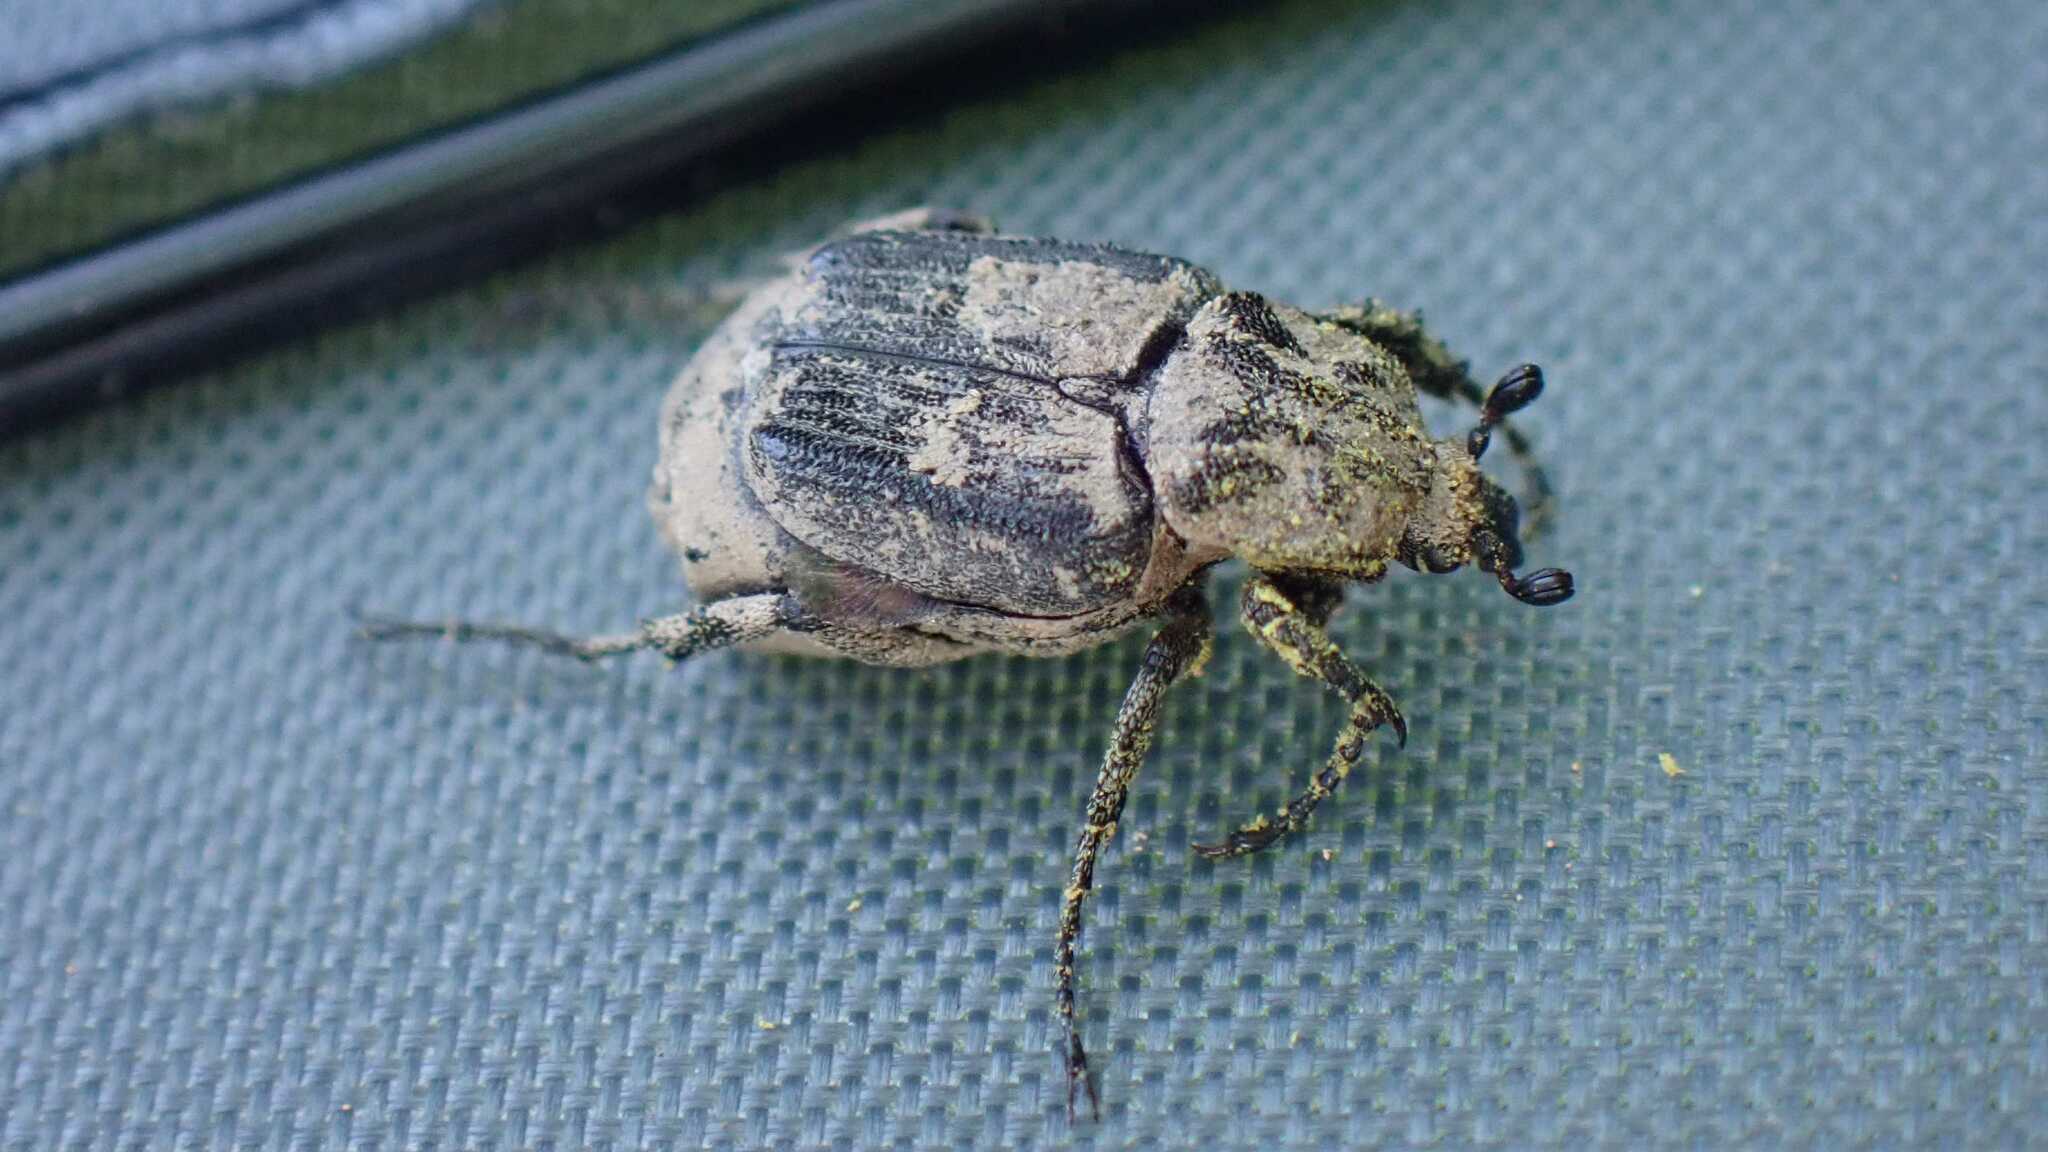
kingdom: Animalia
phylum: Arthropoda
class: Insecta
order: Coleoptera
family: Scarabaeidae
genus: Valgus
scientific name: Valgus hemipterus
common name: Bug flower chafer
